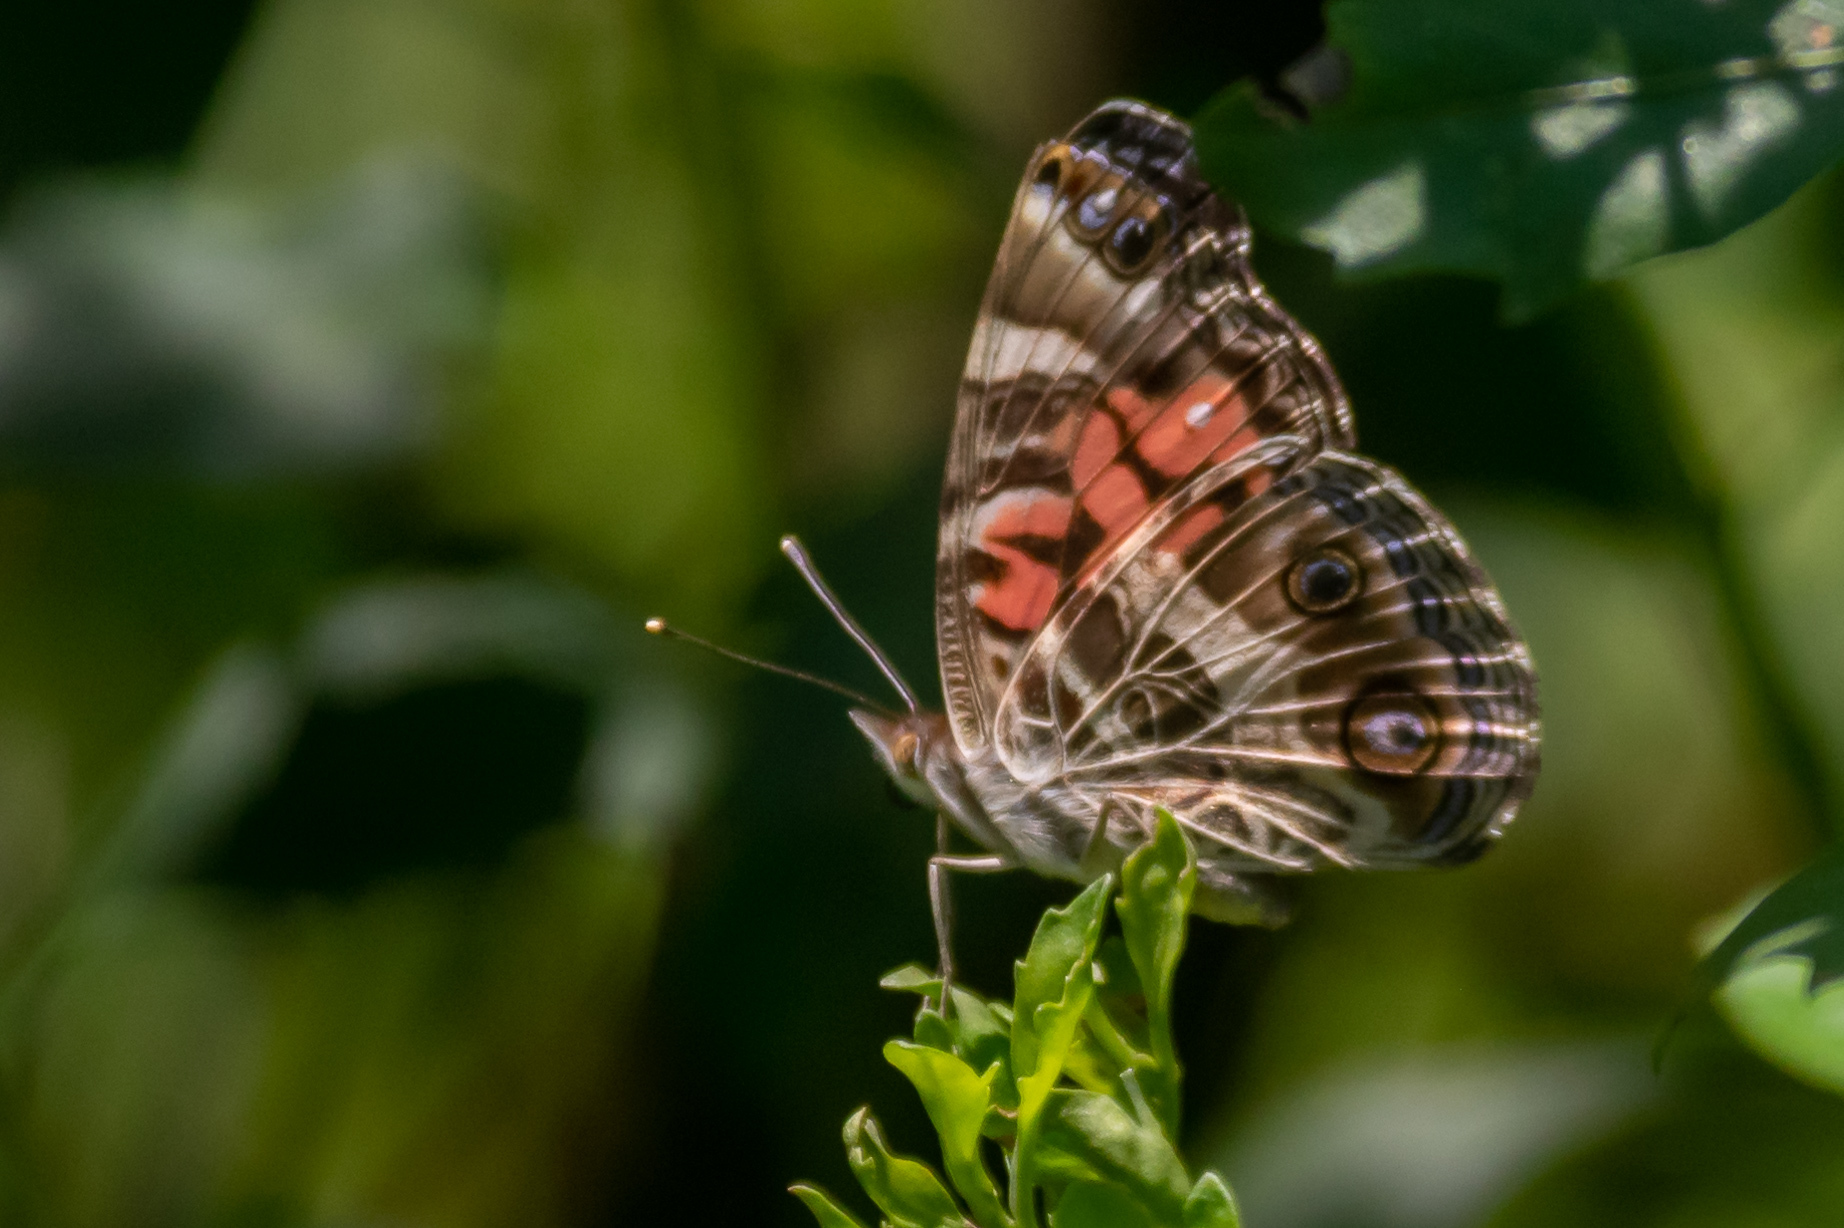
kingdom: Animalia
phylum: Arthropoda
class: Insecta
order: Lepidoptera
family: Nymphalidae
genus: Vanessa
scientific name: Vanessa virginiensis
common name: American lady
